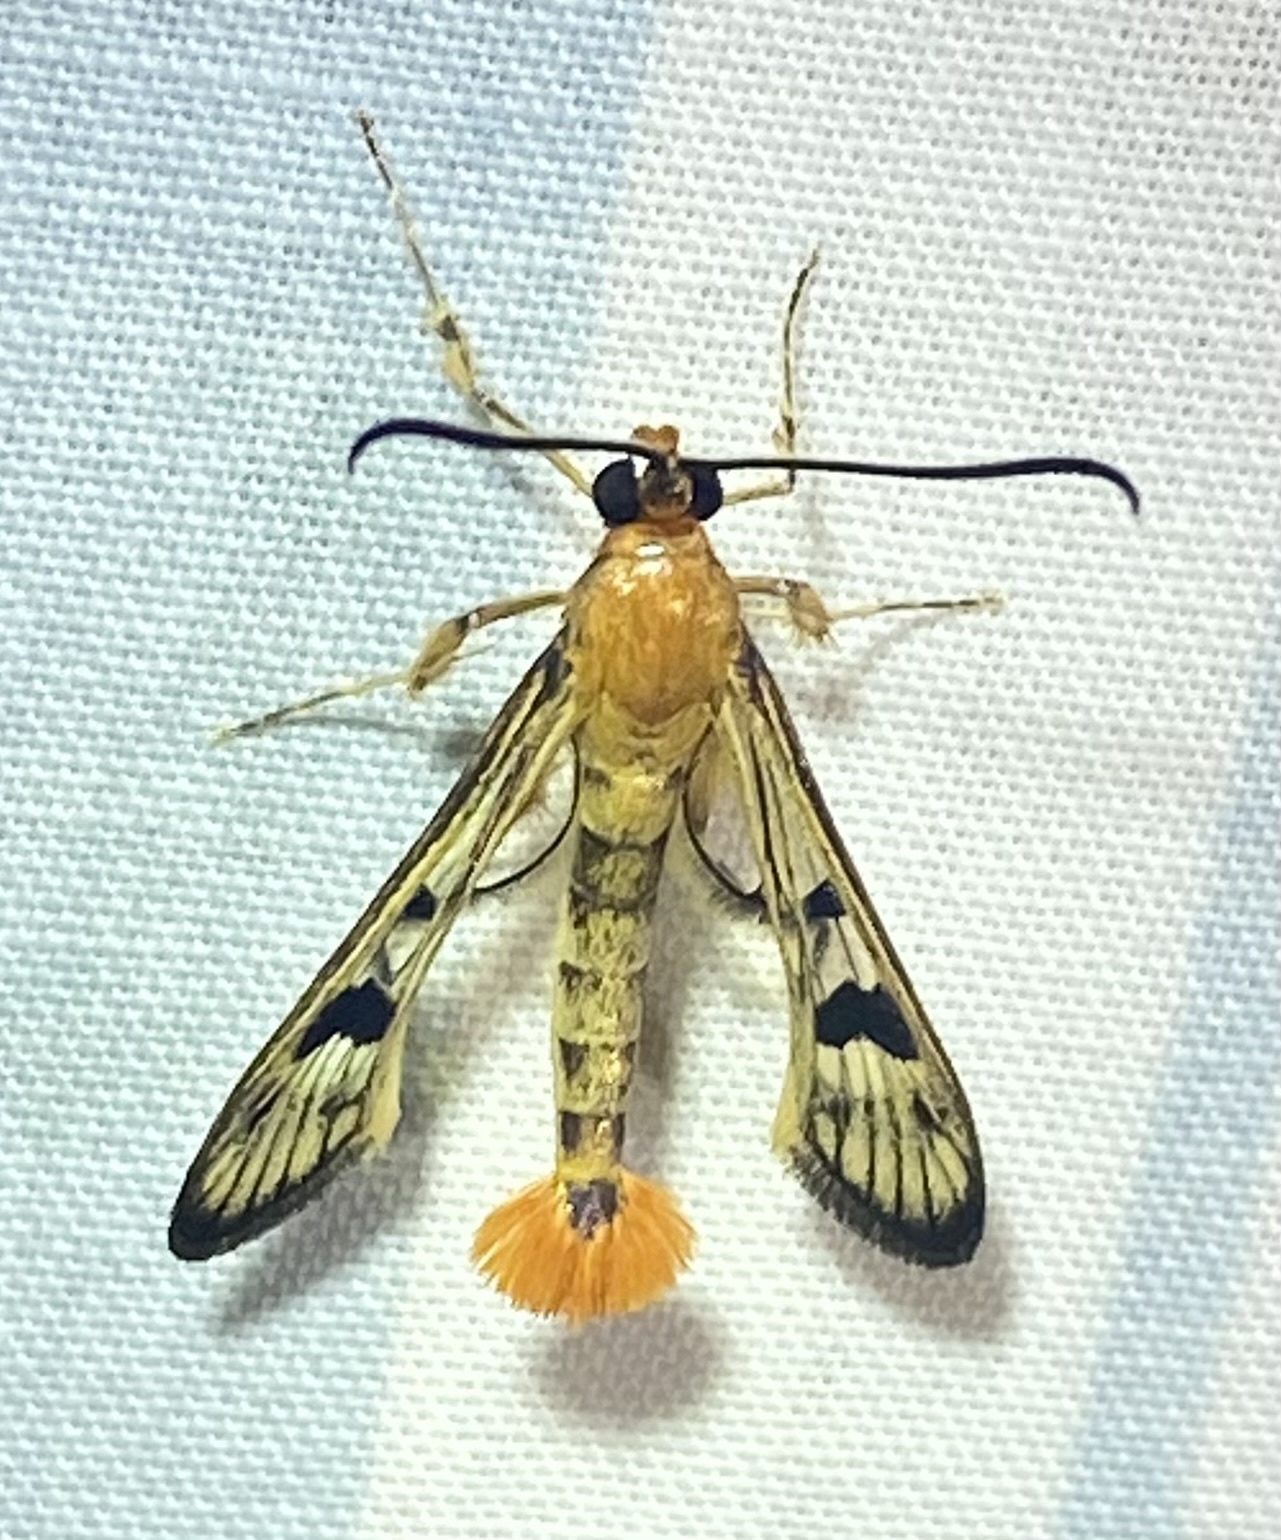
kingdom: Animalia
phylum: Arthropoda
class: Insecta
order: Lepidoptera
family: Sesiidae
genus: Synanthedon
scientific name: Synanthedon acerni
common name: Maple callus borer moth
